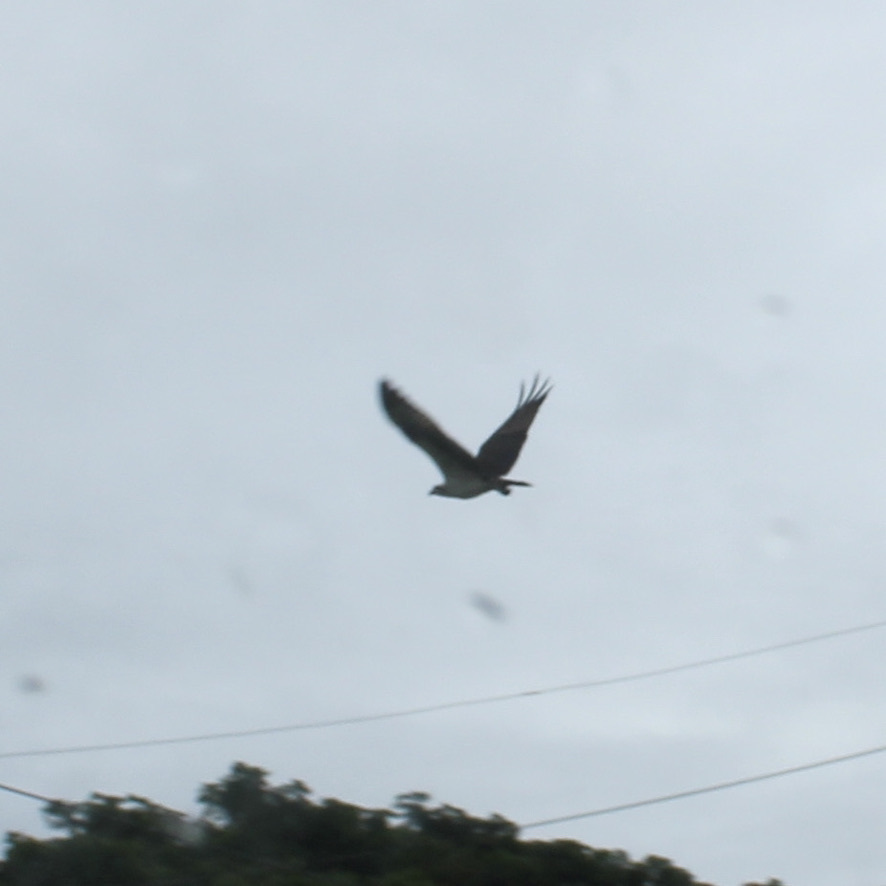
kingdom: Animalia
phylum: Chordata
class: Aves
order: Accipitriformes
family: Pandionidae
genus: Pandion
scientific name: Pandion haliaetus
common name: Osprey
